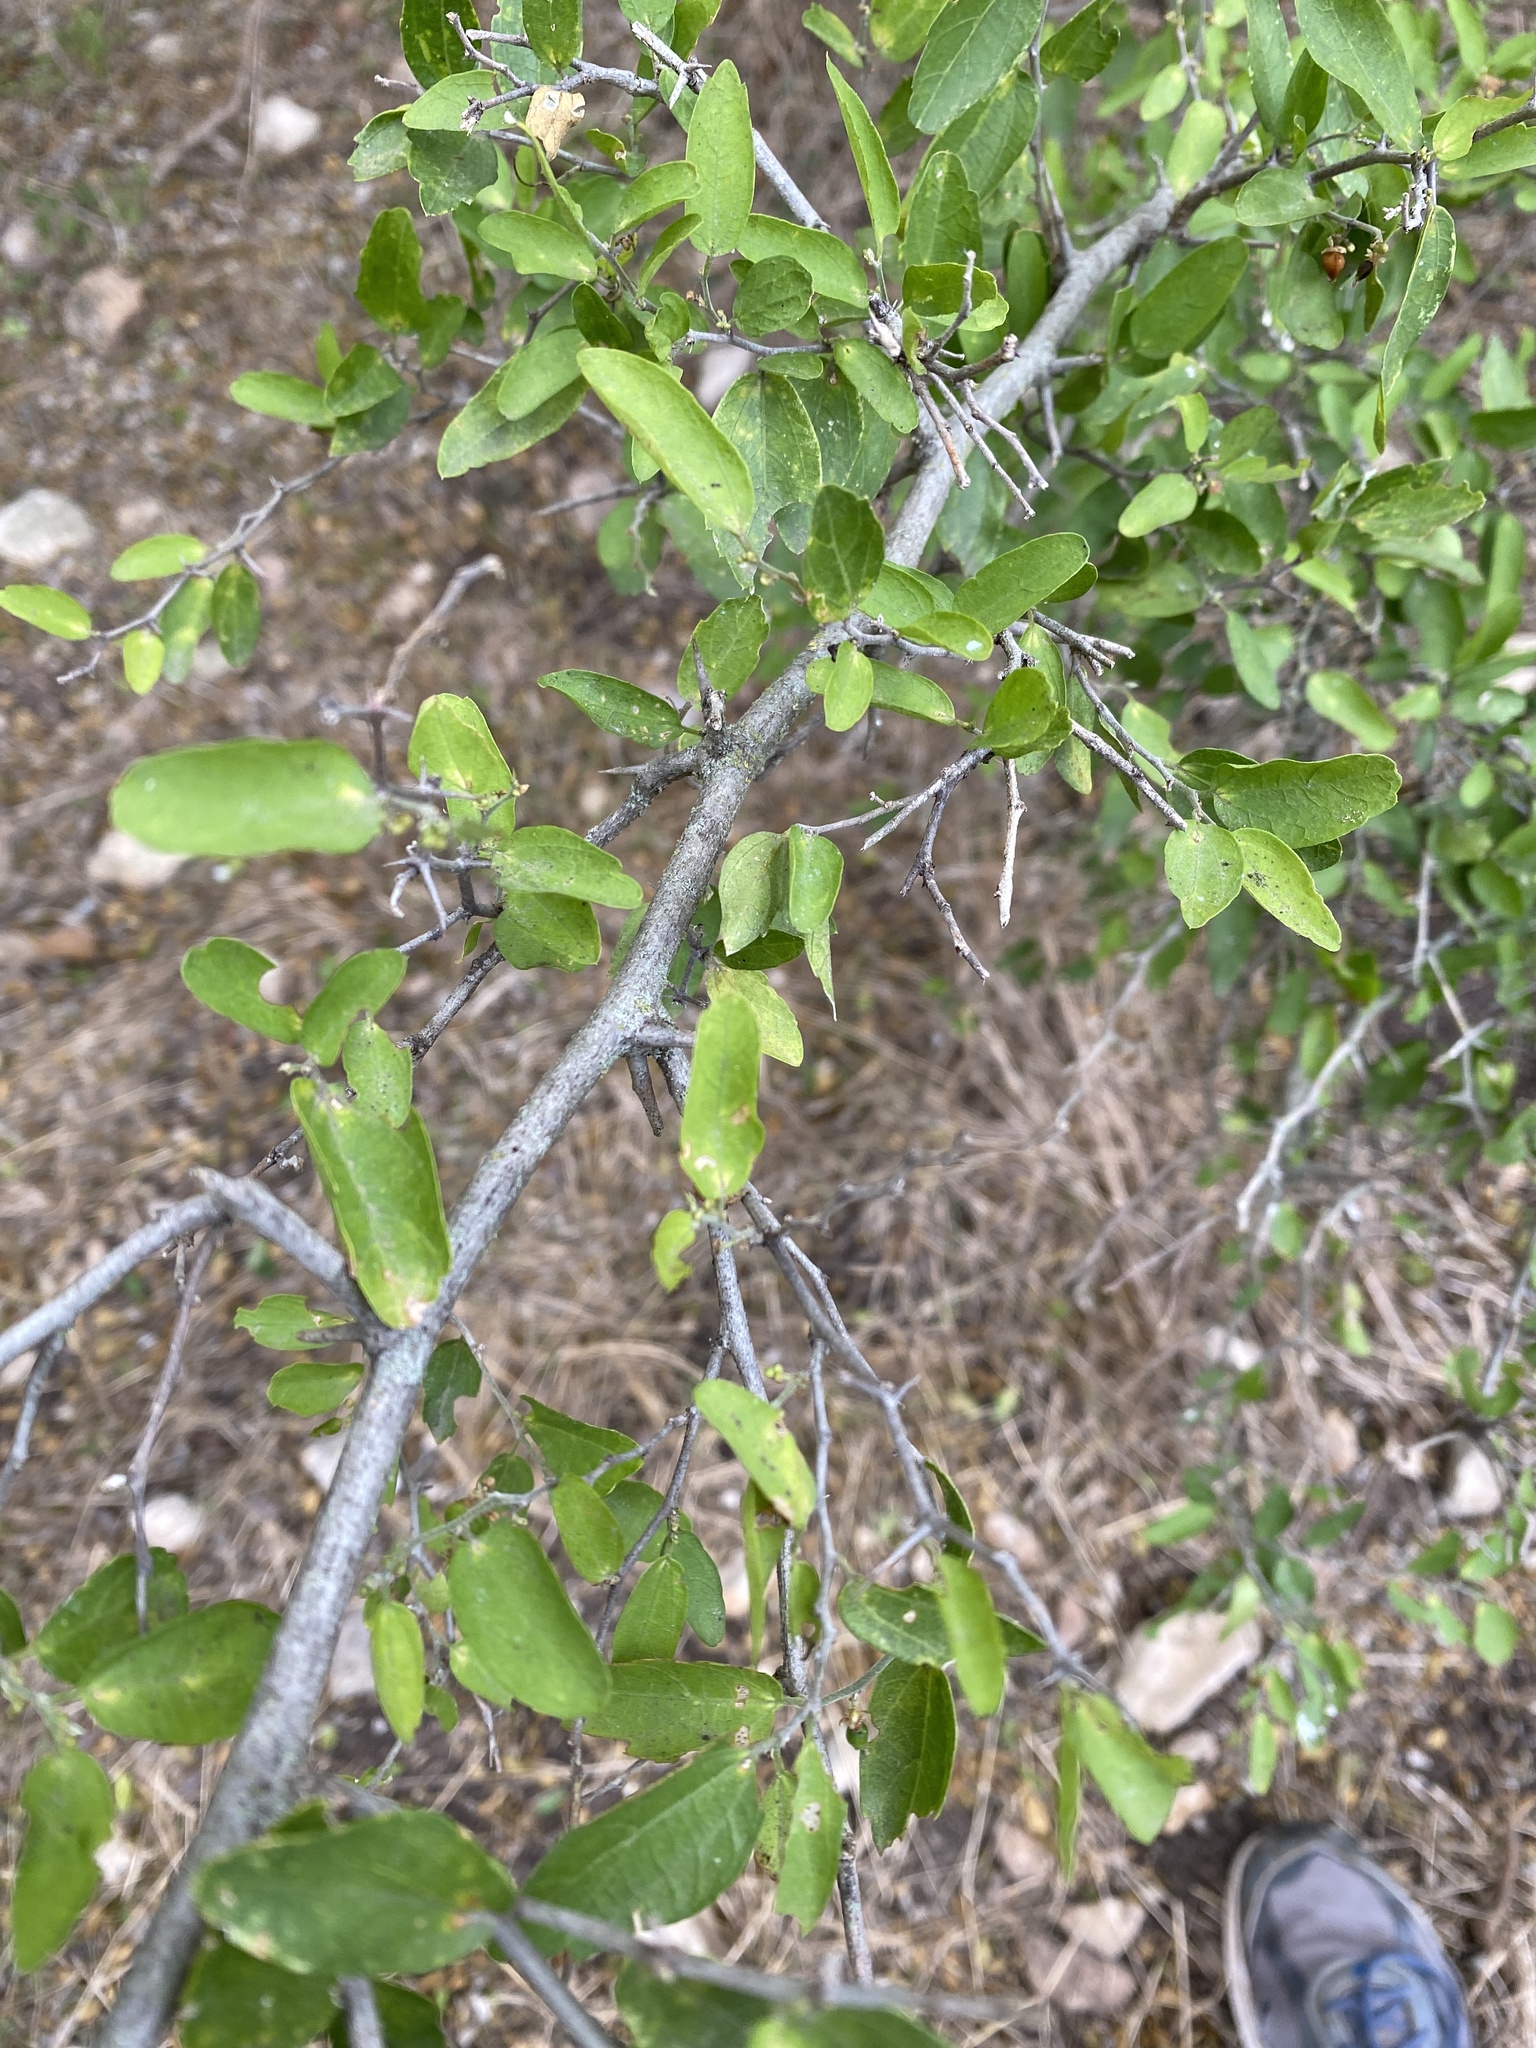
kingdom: Plantae
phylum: Tracheophyta
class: Magnoliopsida
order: Rosales
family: Rhamnaceae
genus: Condalia
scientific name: Condalia hookeri
